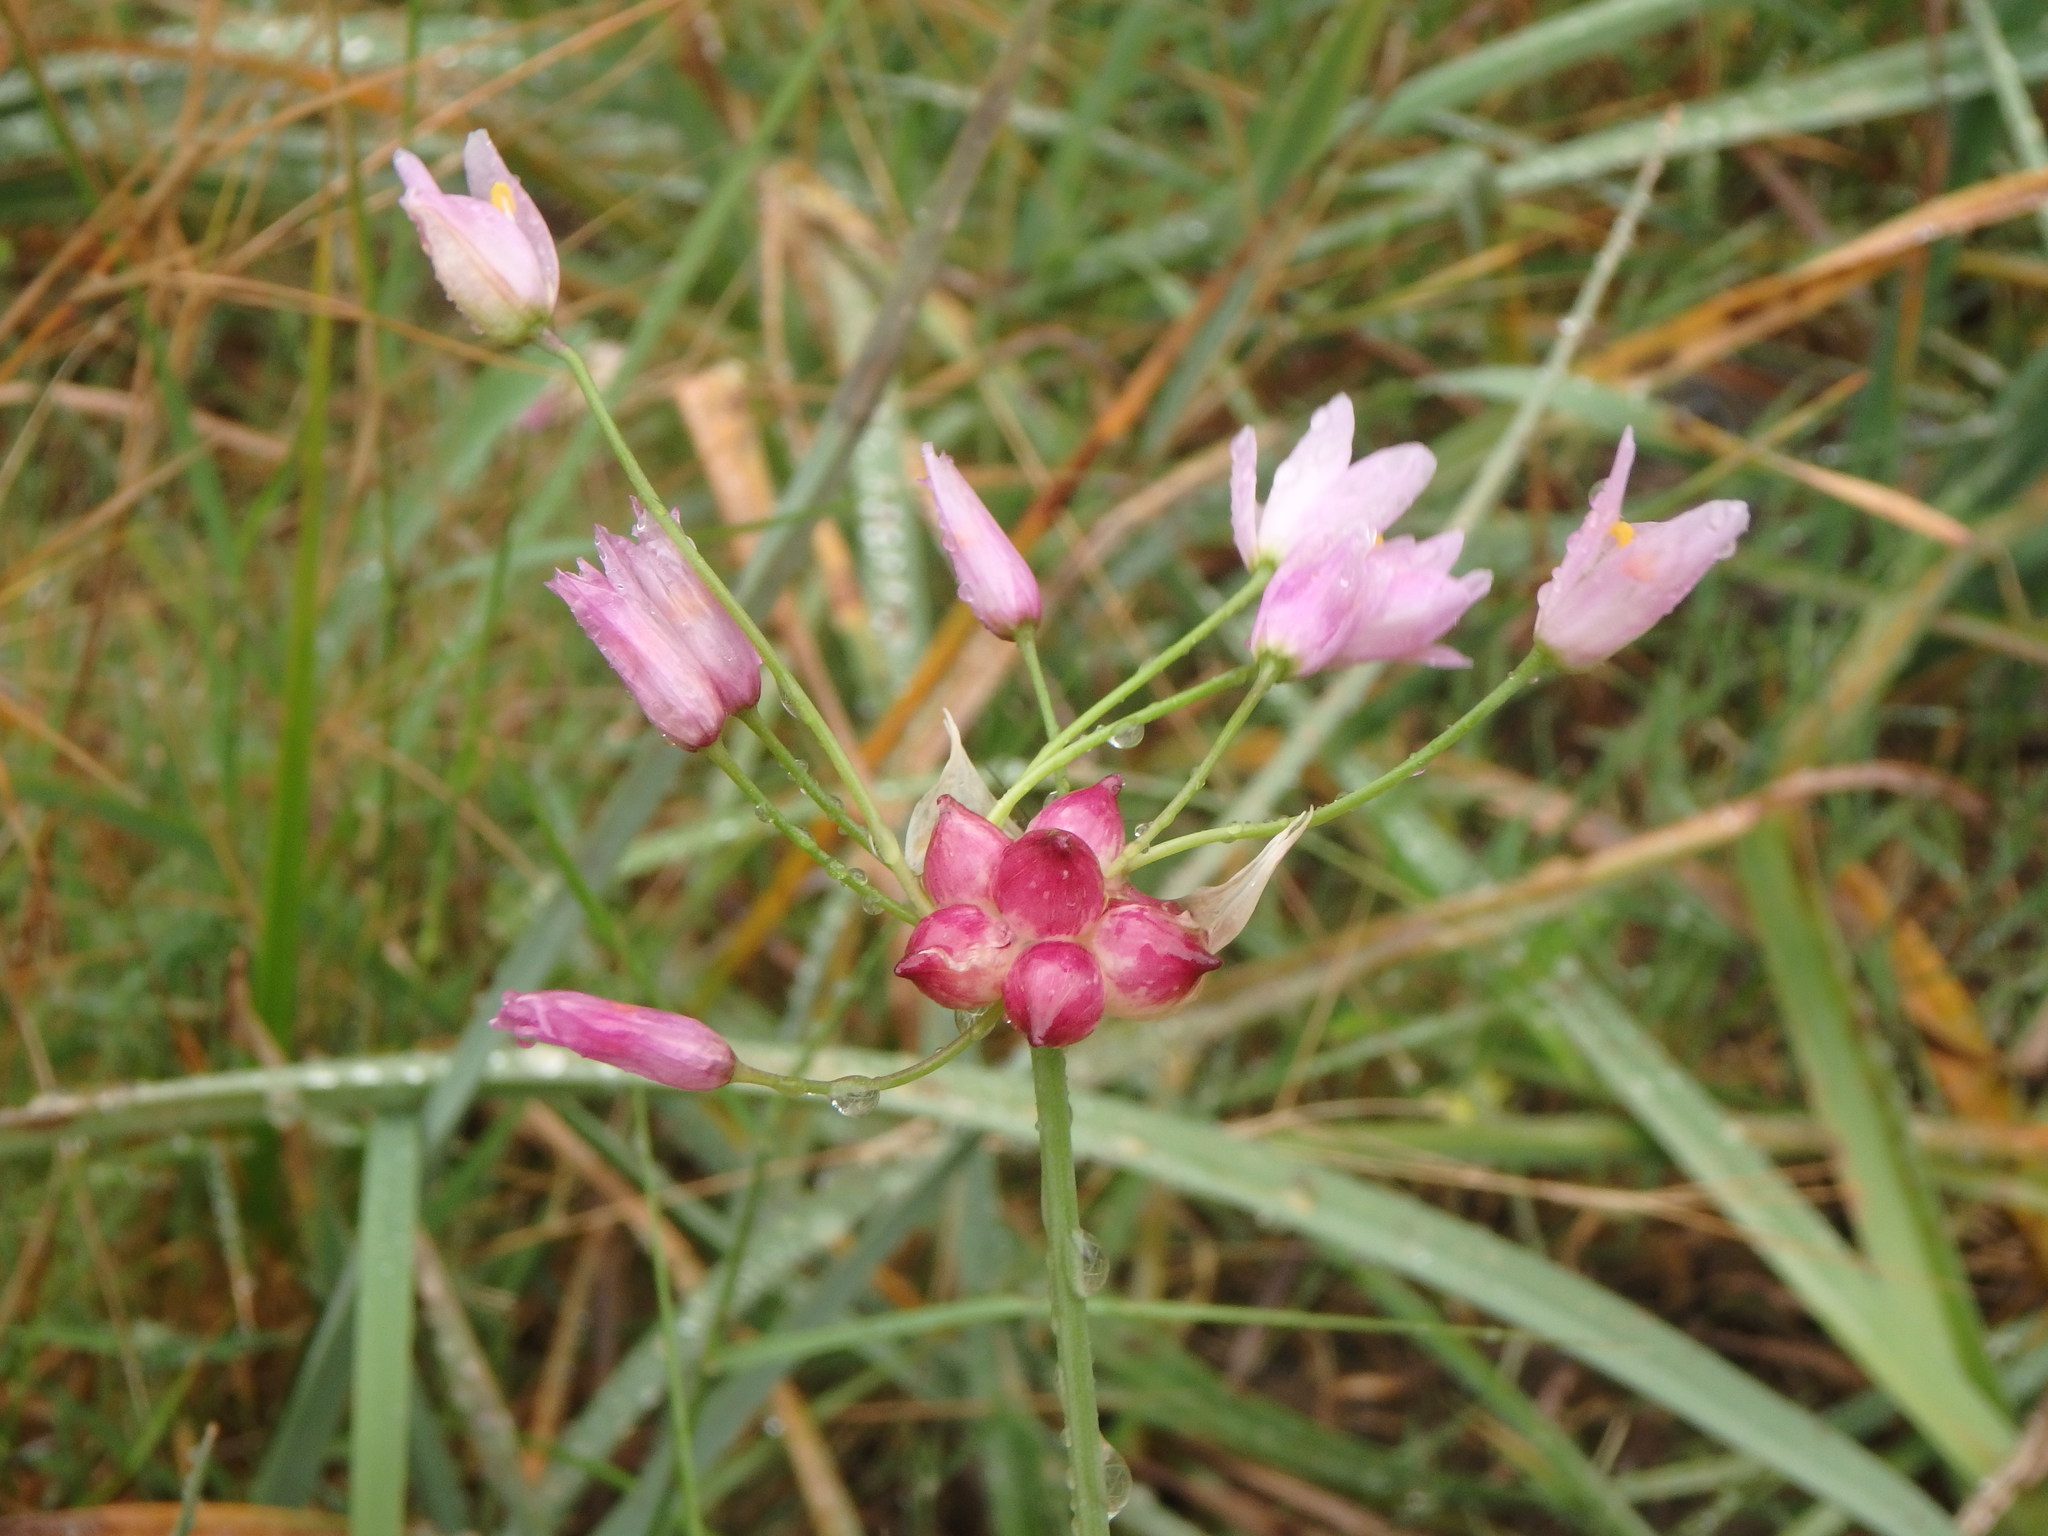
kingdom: Plantae
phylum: Tracheophyta
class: Liliopsida
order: Asparagales
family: Amaryllidaceae
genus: Allium
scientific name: Allium roseum
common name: Rosy garlic
